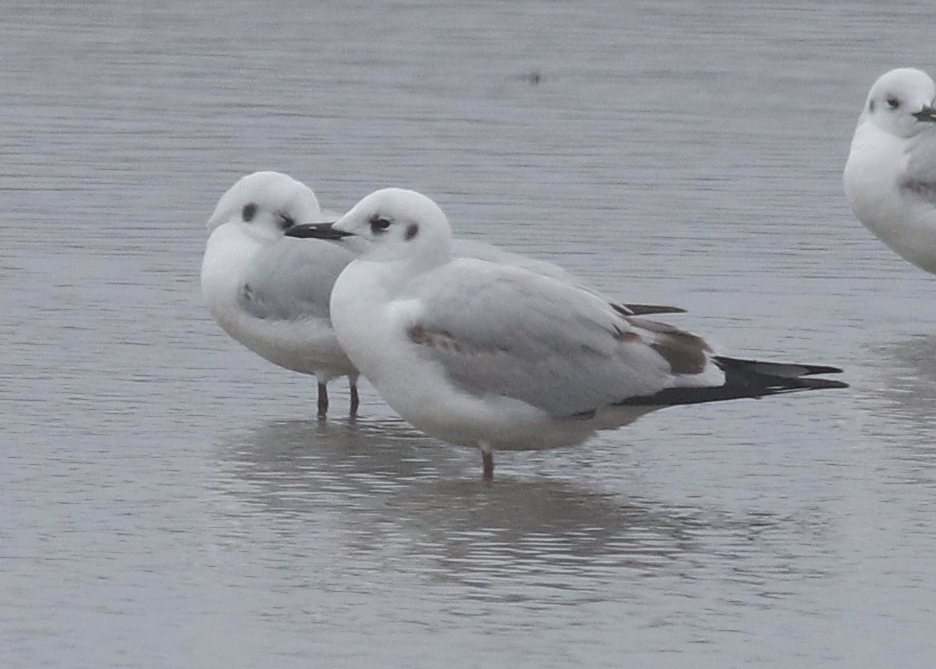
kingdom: Animalia
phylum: Chordata
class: Aves
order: Charadriiformes
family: Laridae
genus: Chroicocephalus
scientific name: Chroicocephalus serranus
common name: Andean gull
